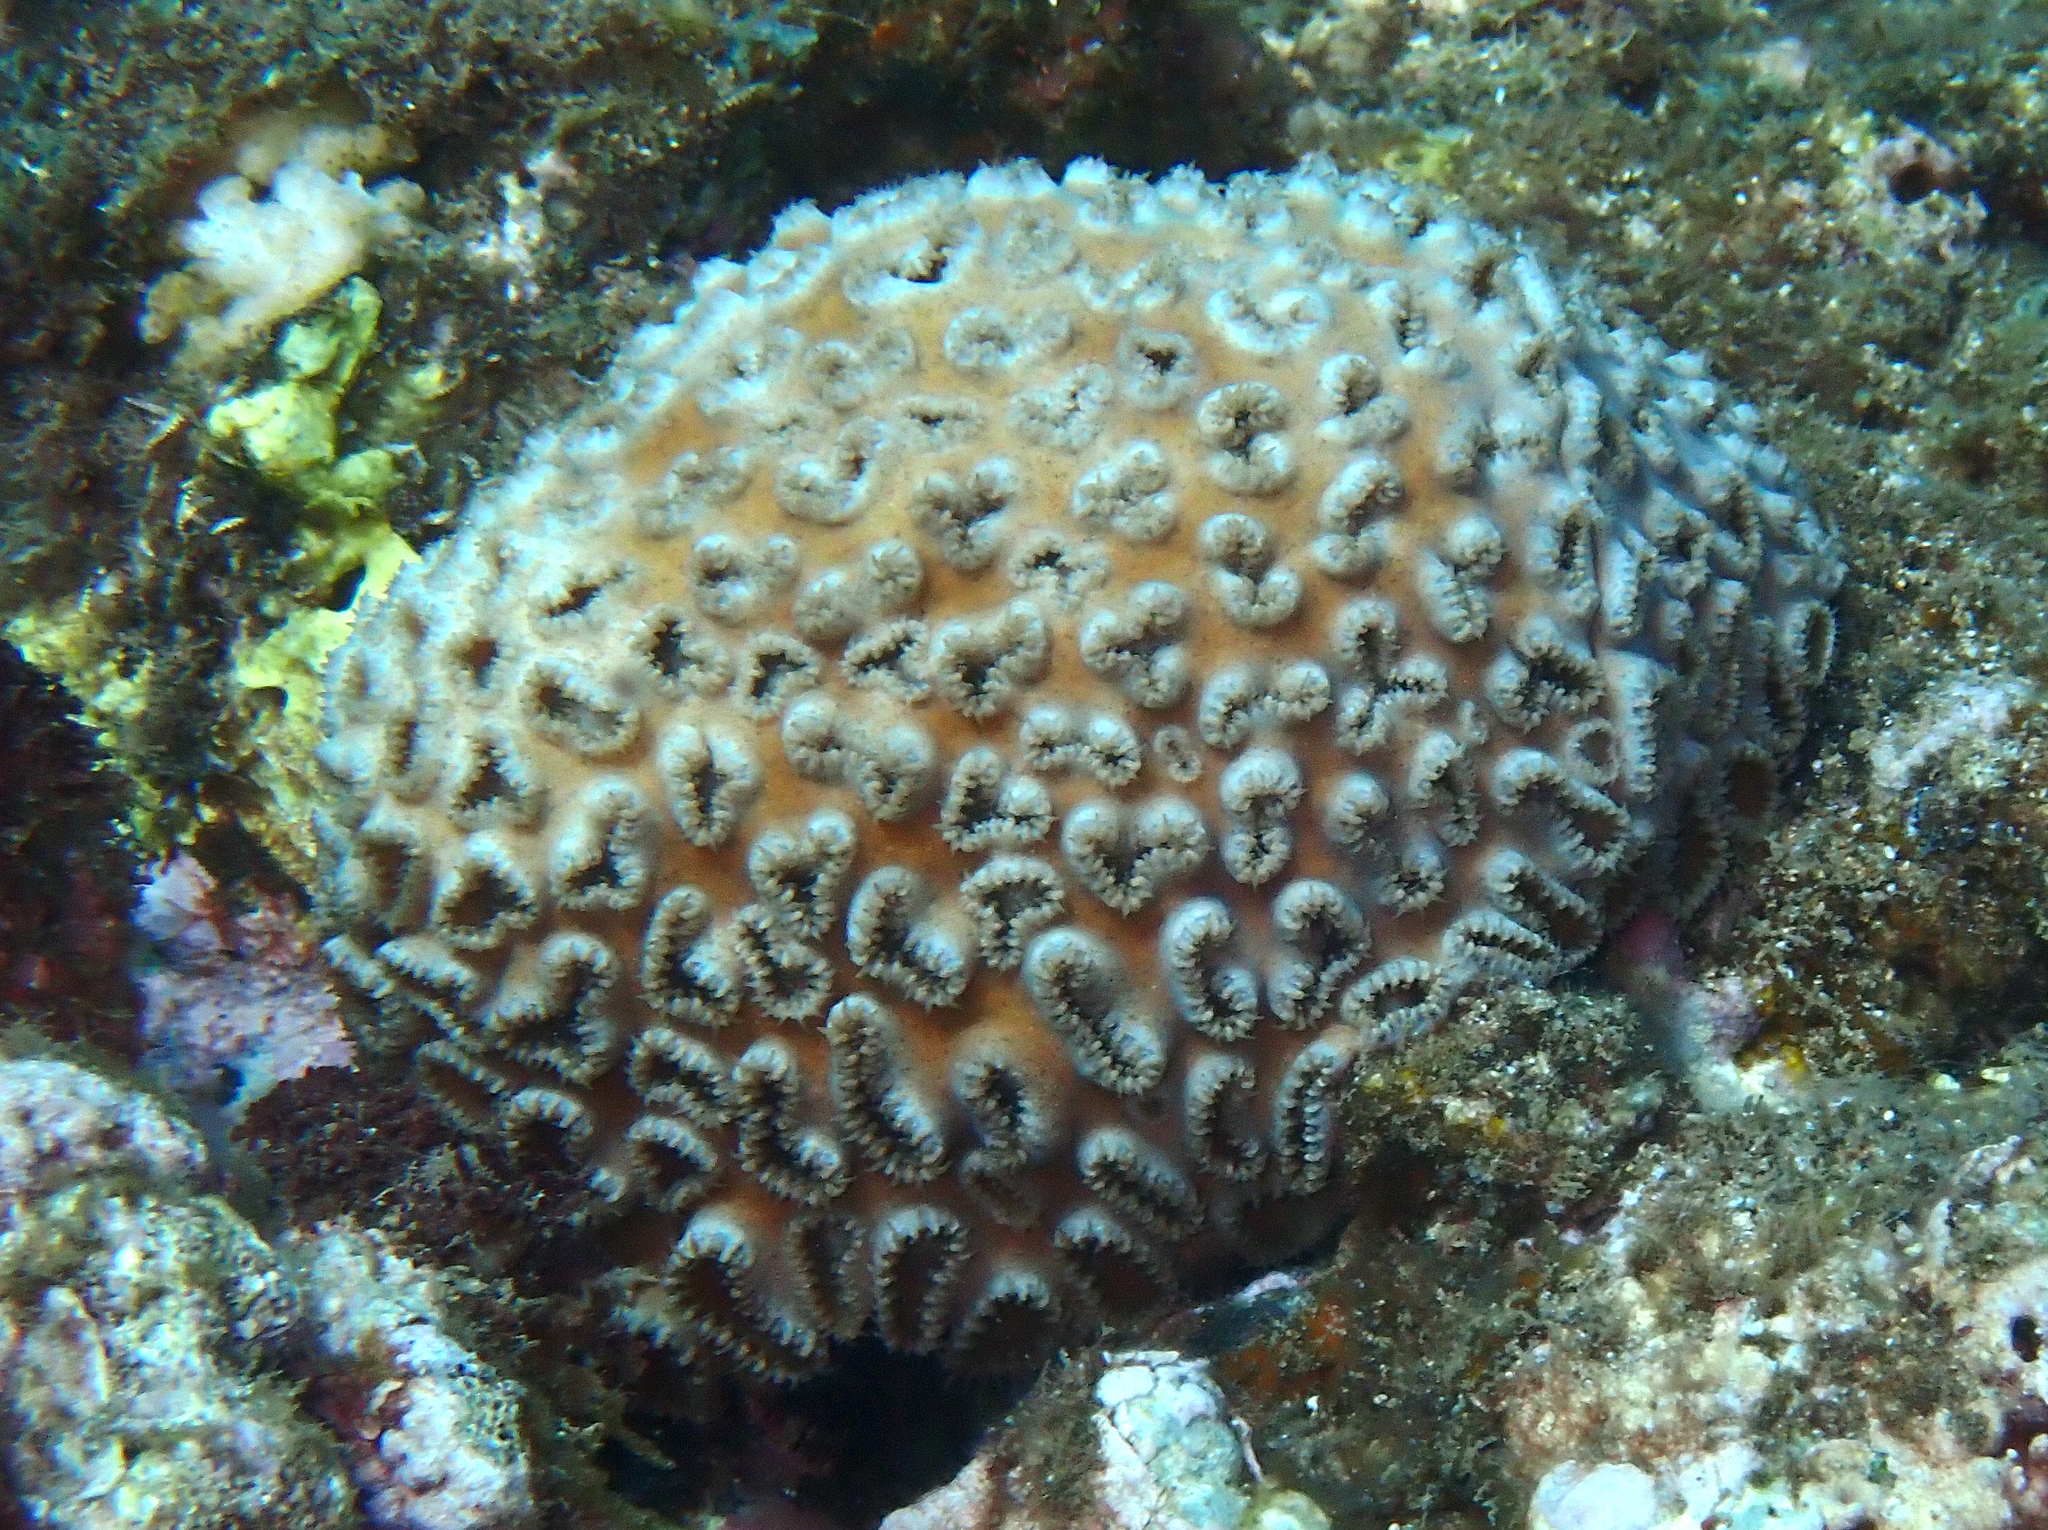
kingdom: Animalia
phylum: Cnidaria
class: Anthozoa
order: Zoantharia
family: Sphenopidae
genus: Palythoa
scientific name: Palythoa tuberculosa
